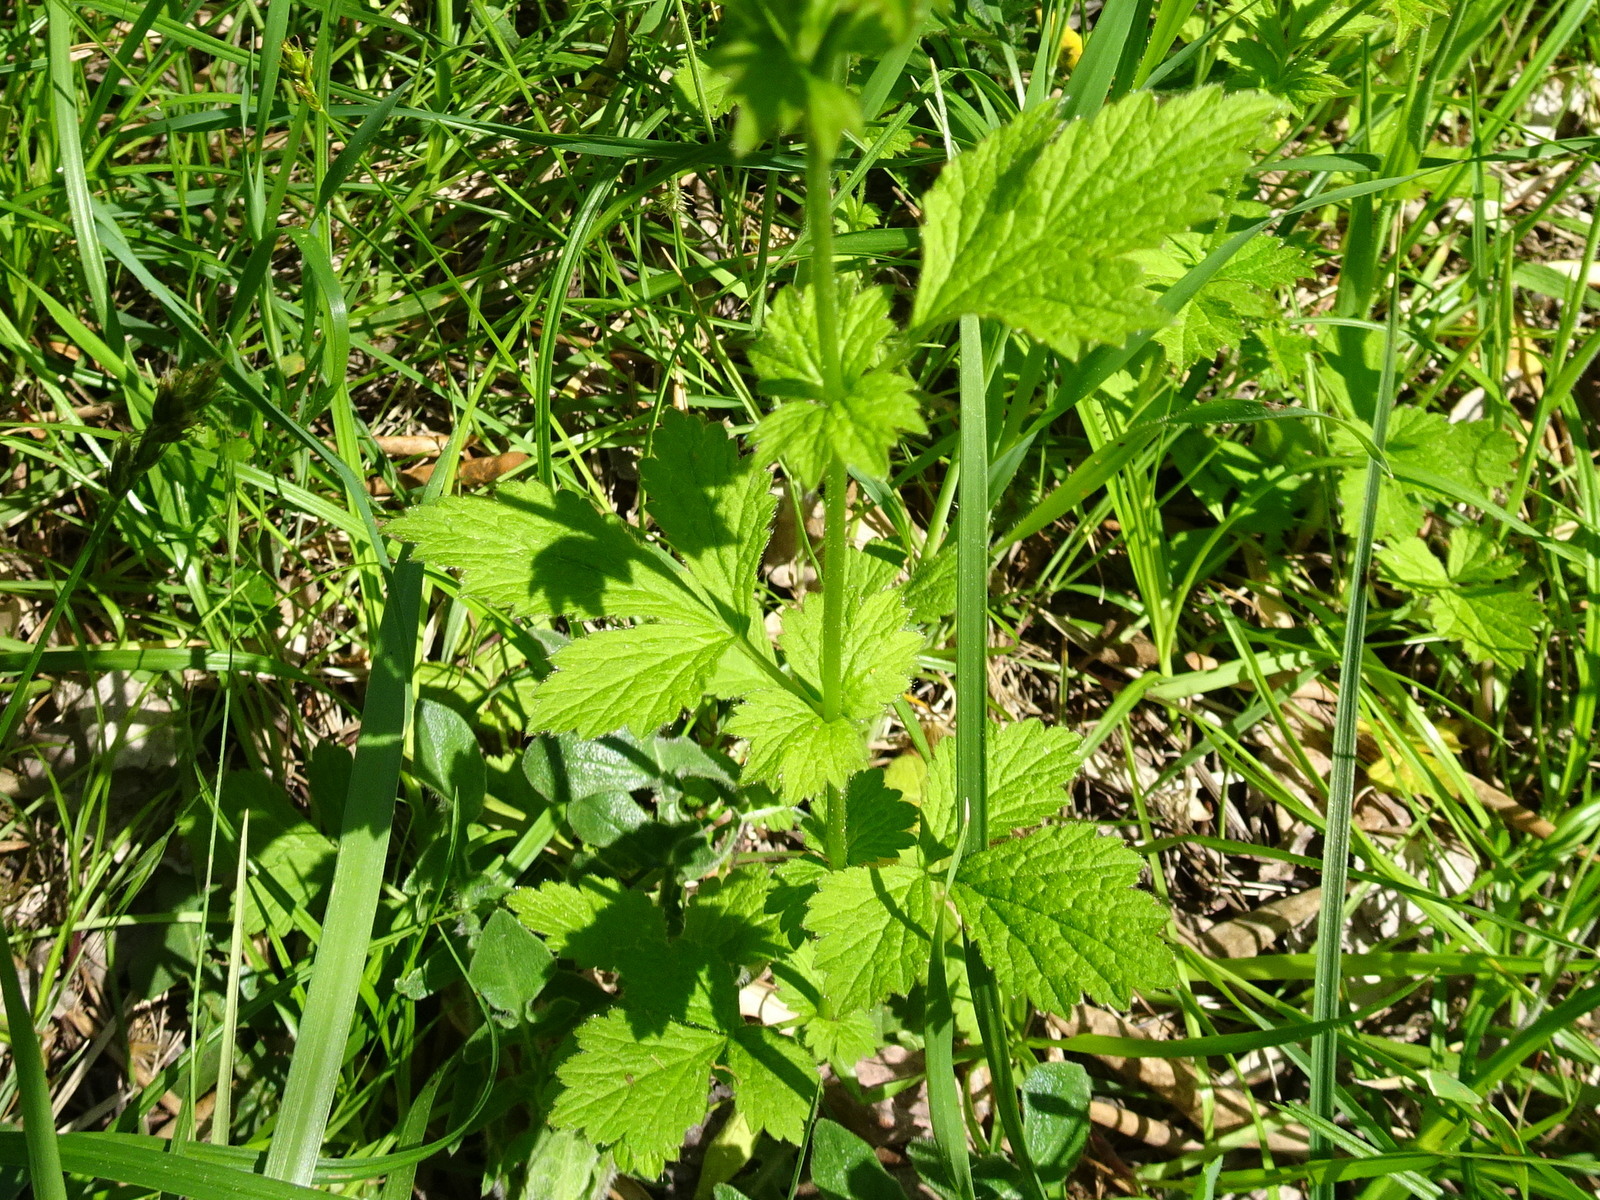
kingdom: Plantae
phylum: Tracheophyta
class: Magnoliopsida
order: Rosales
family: Rosaceae
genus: Geum
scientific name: Geum urbanum
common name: Wood avens
